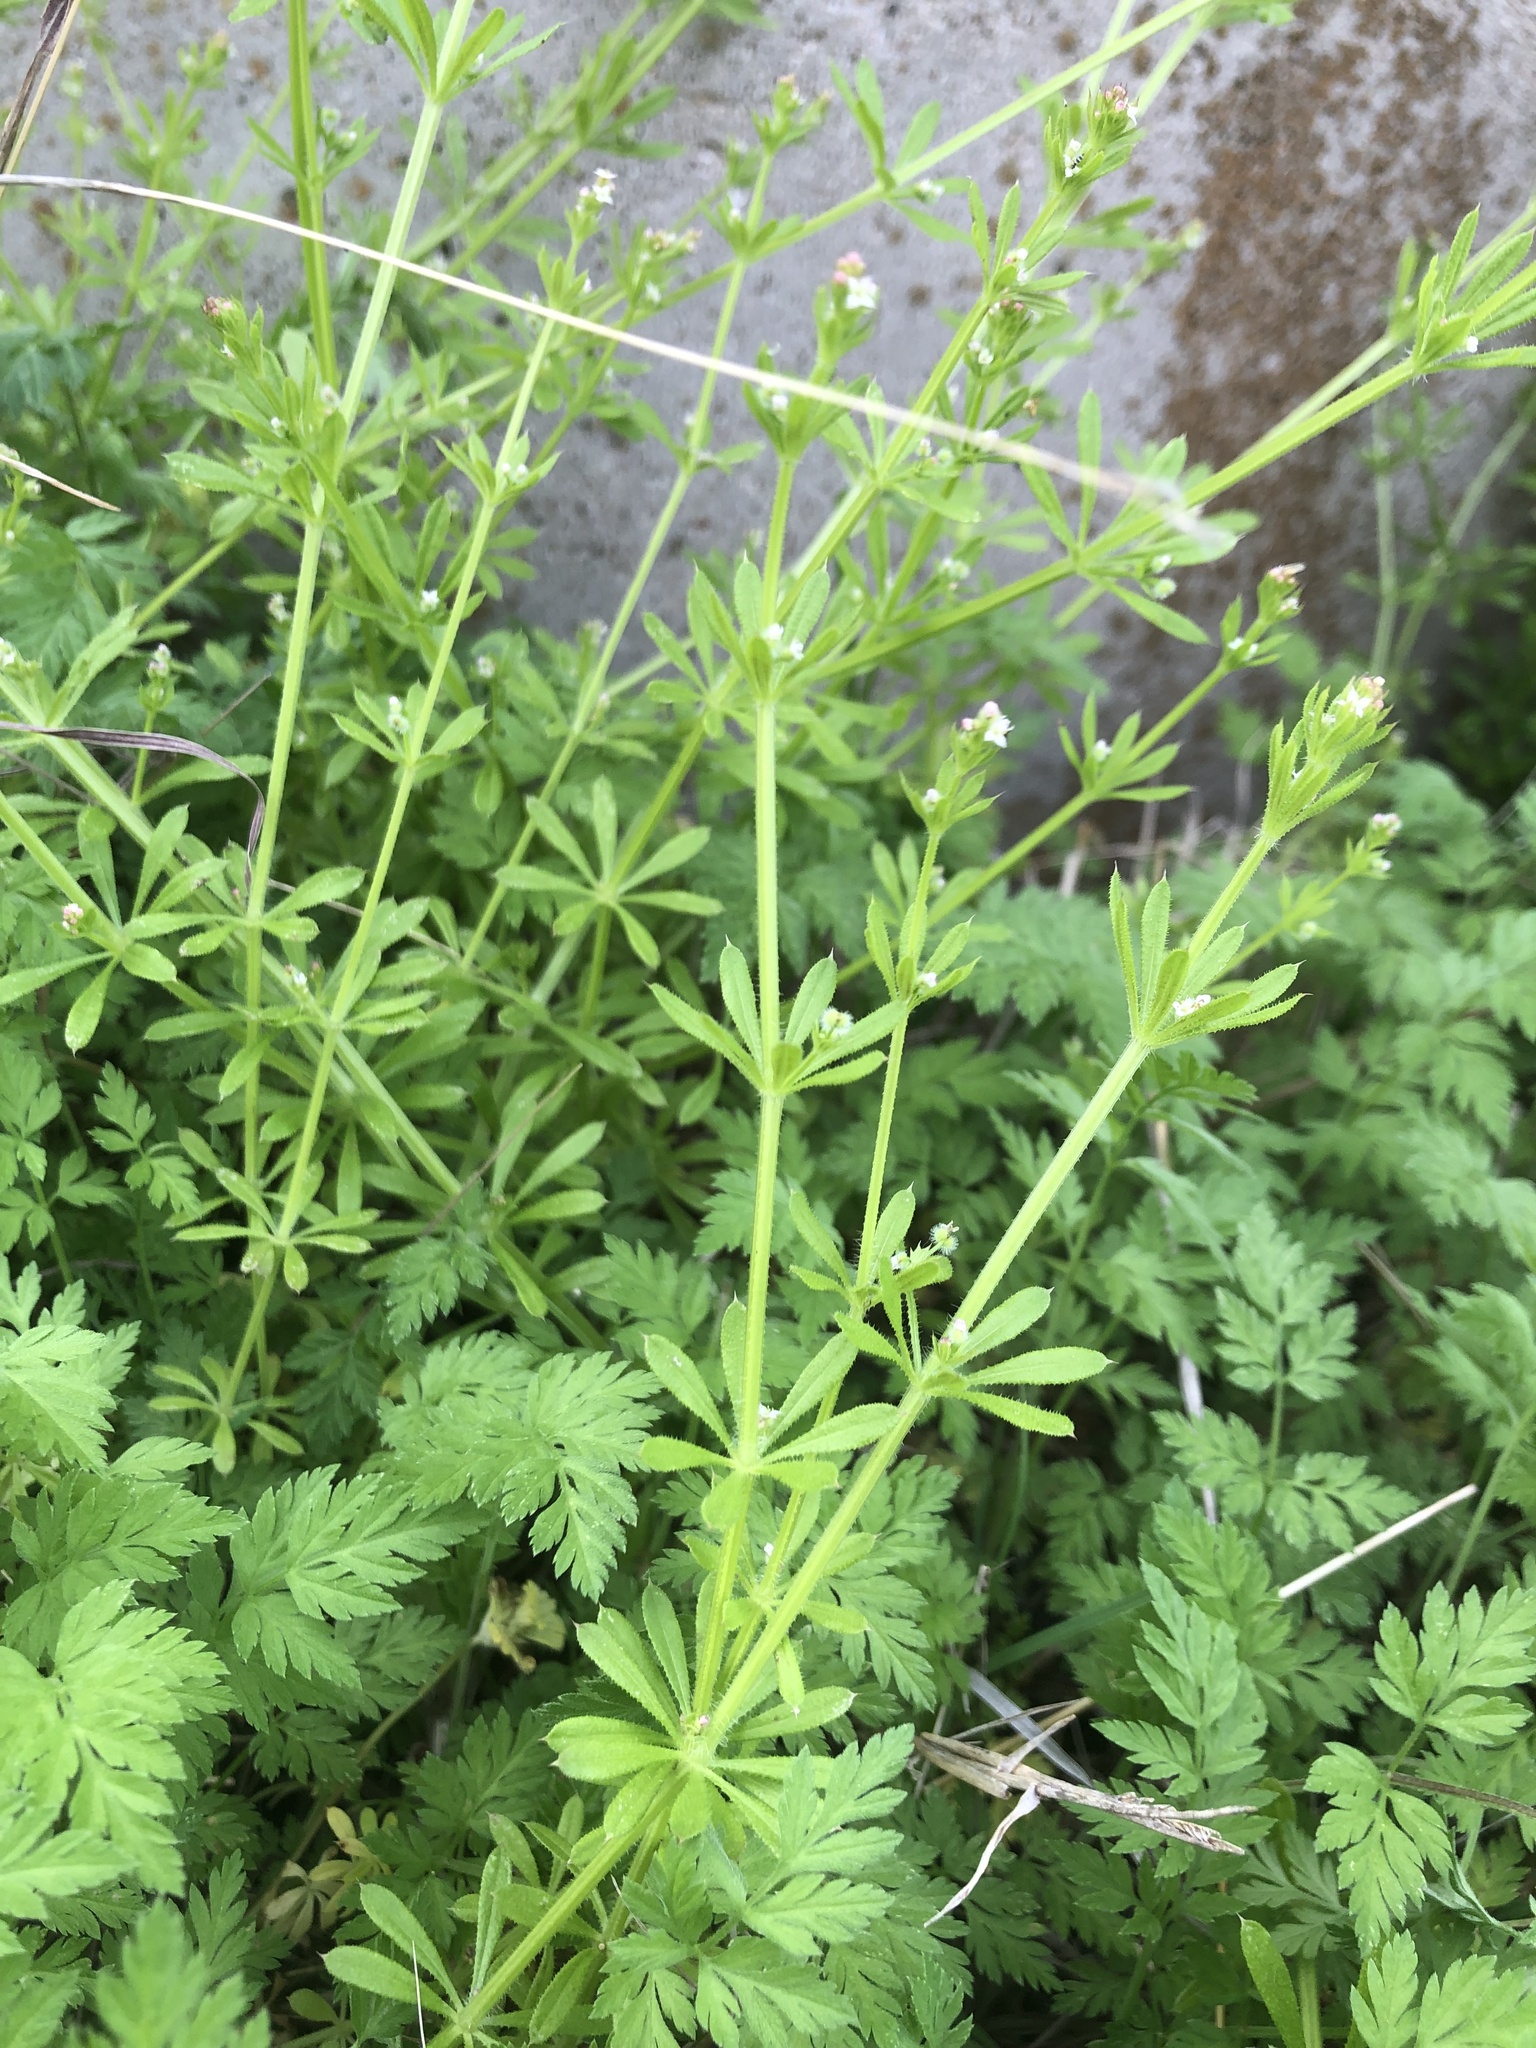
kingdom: Plantae
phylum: Tracheophyta
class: Magnoliopsida
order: Gentianales
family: Rubiaceae
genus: Galium
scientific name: Galium aparine
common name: Cleavers
